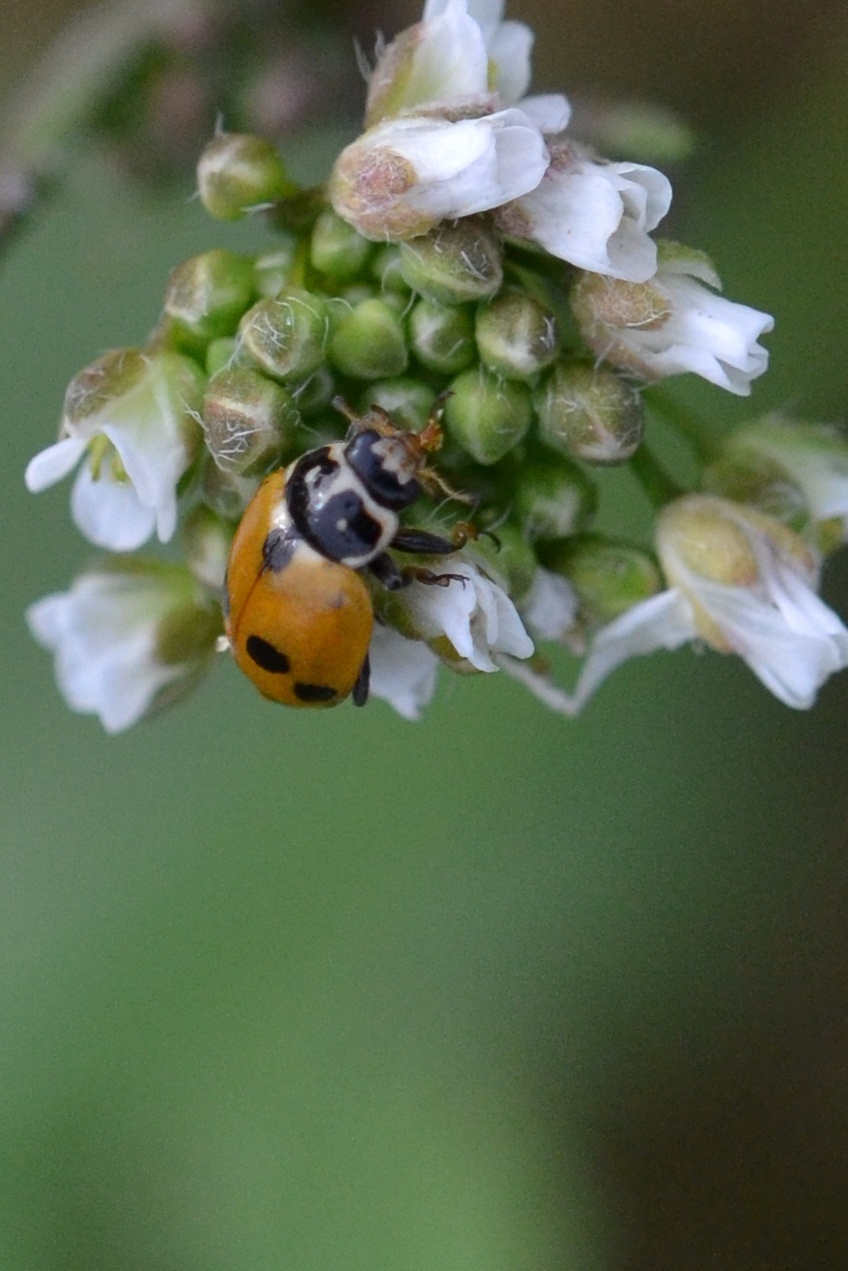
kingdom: Animalia
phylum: Arthropoda
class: Insecta
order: Coleoptera
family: Coccinellidae
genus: Hippodamia
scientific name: Hippodamia variegata
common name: Ladybird beetle
